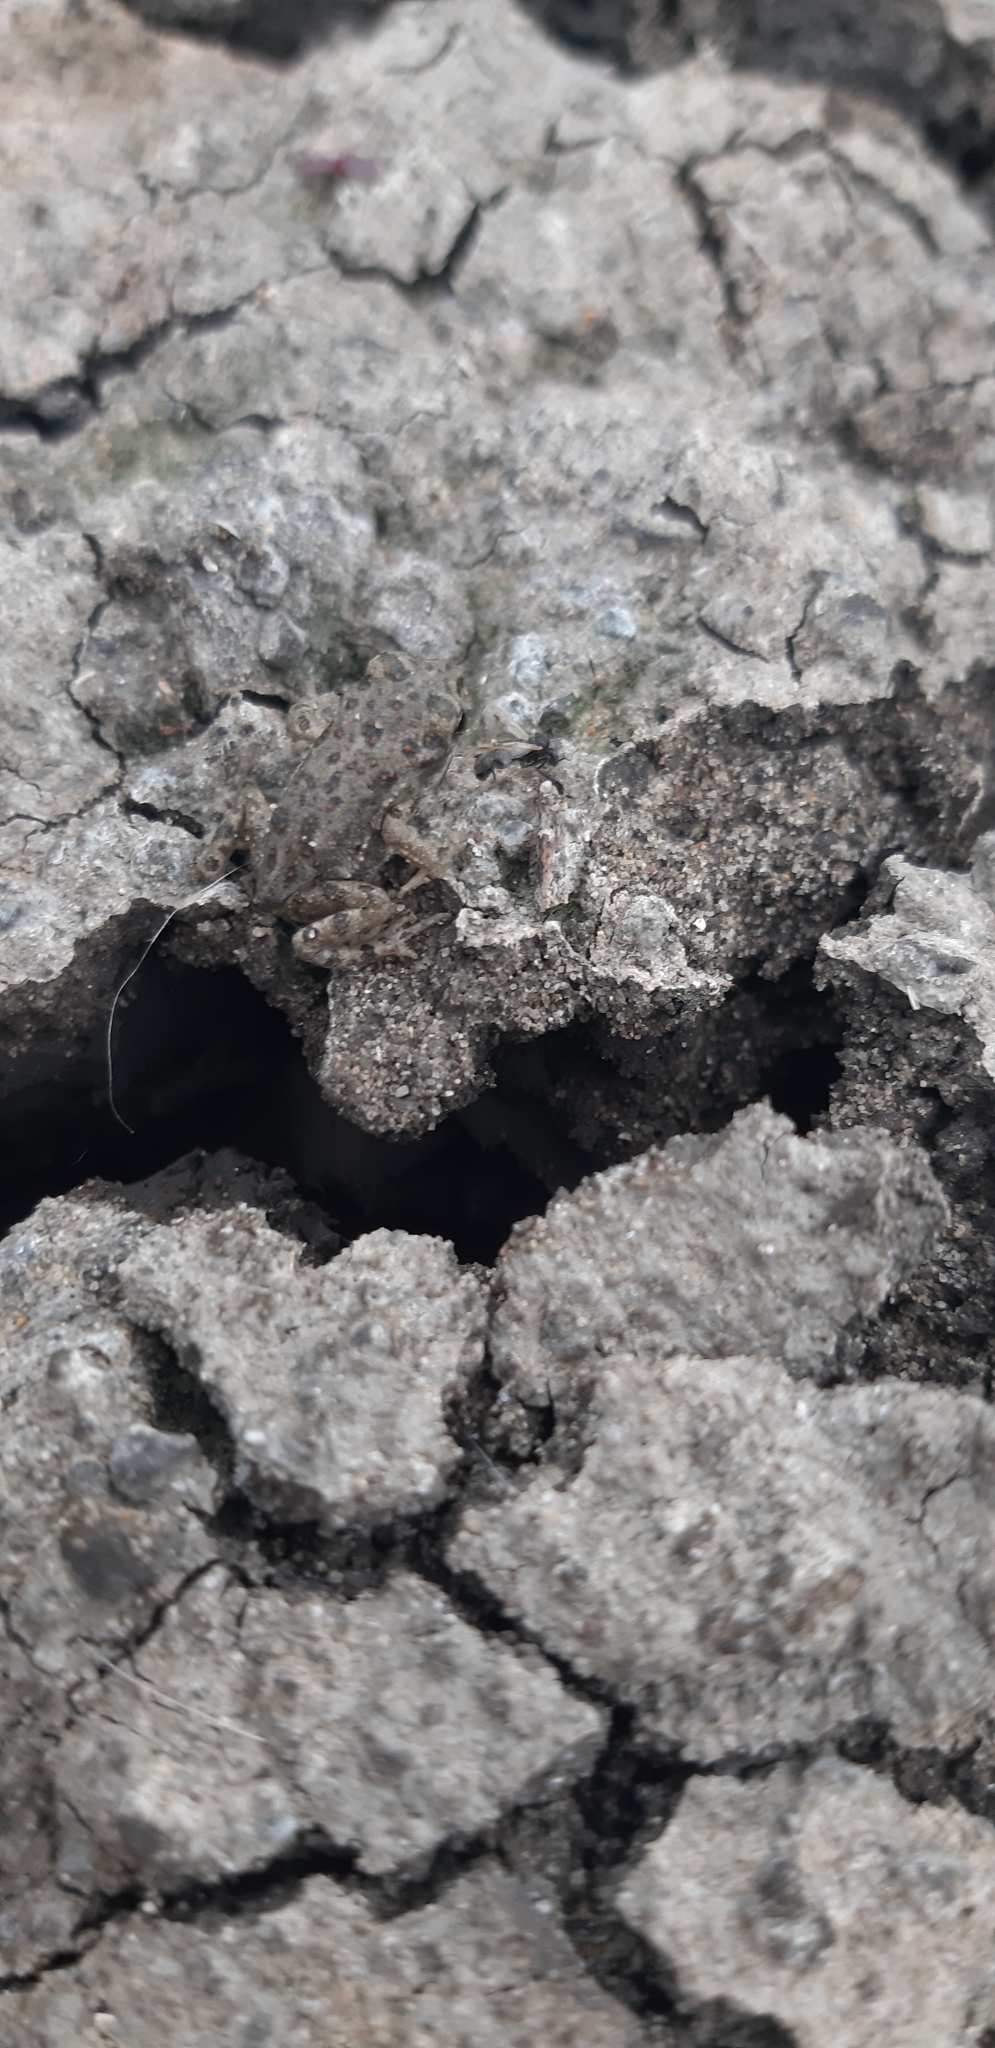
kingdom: Animalia
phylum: Chordata
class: Amphibia
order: Anura
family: Bufonidae
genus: Bufotes
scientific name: Bufotes viridis
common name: European green toad
